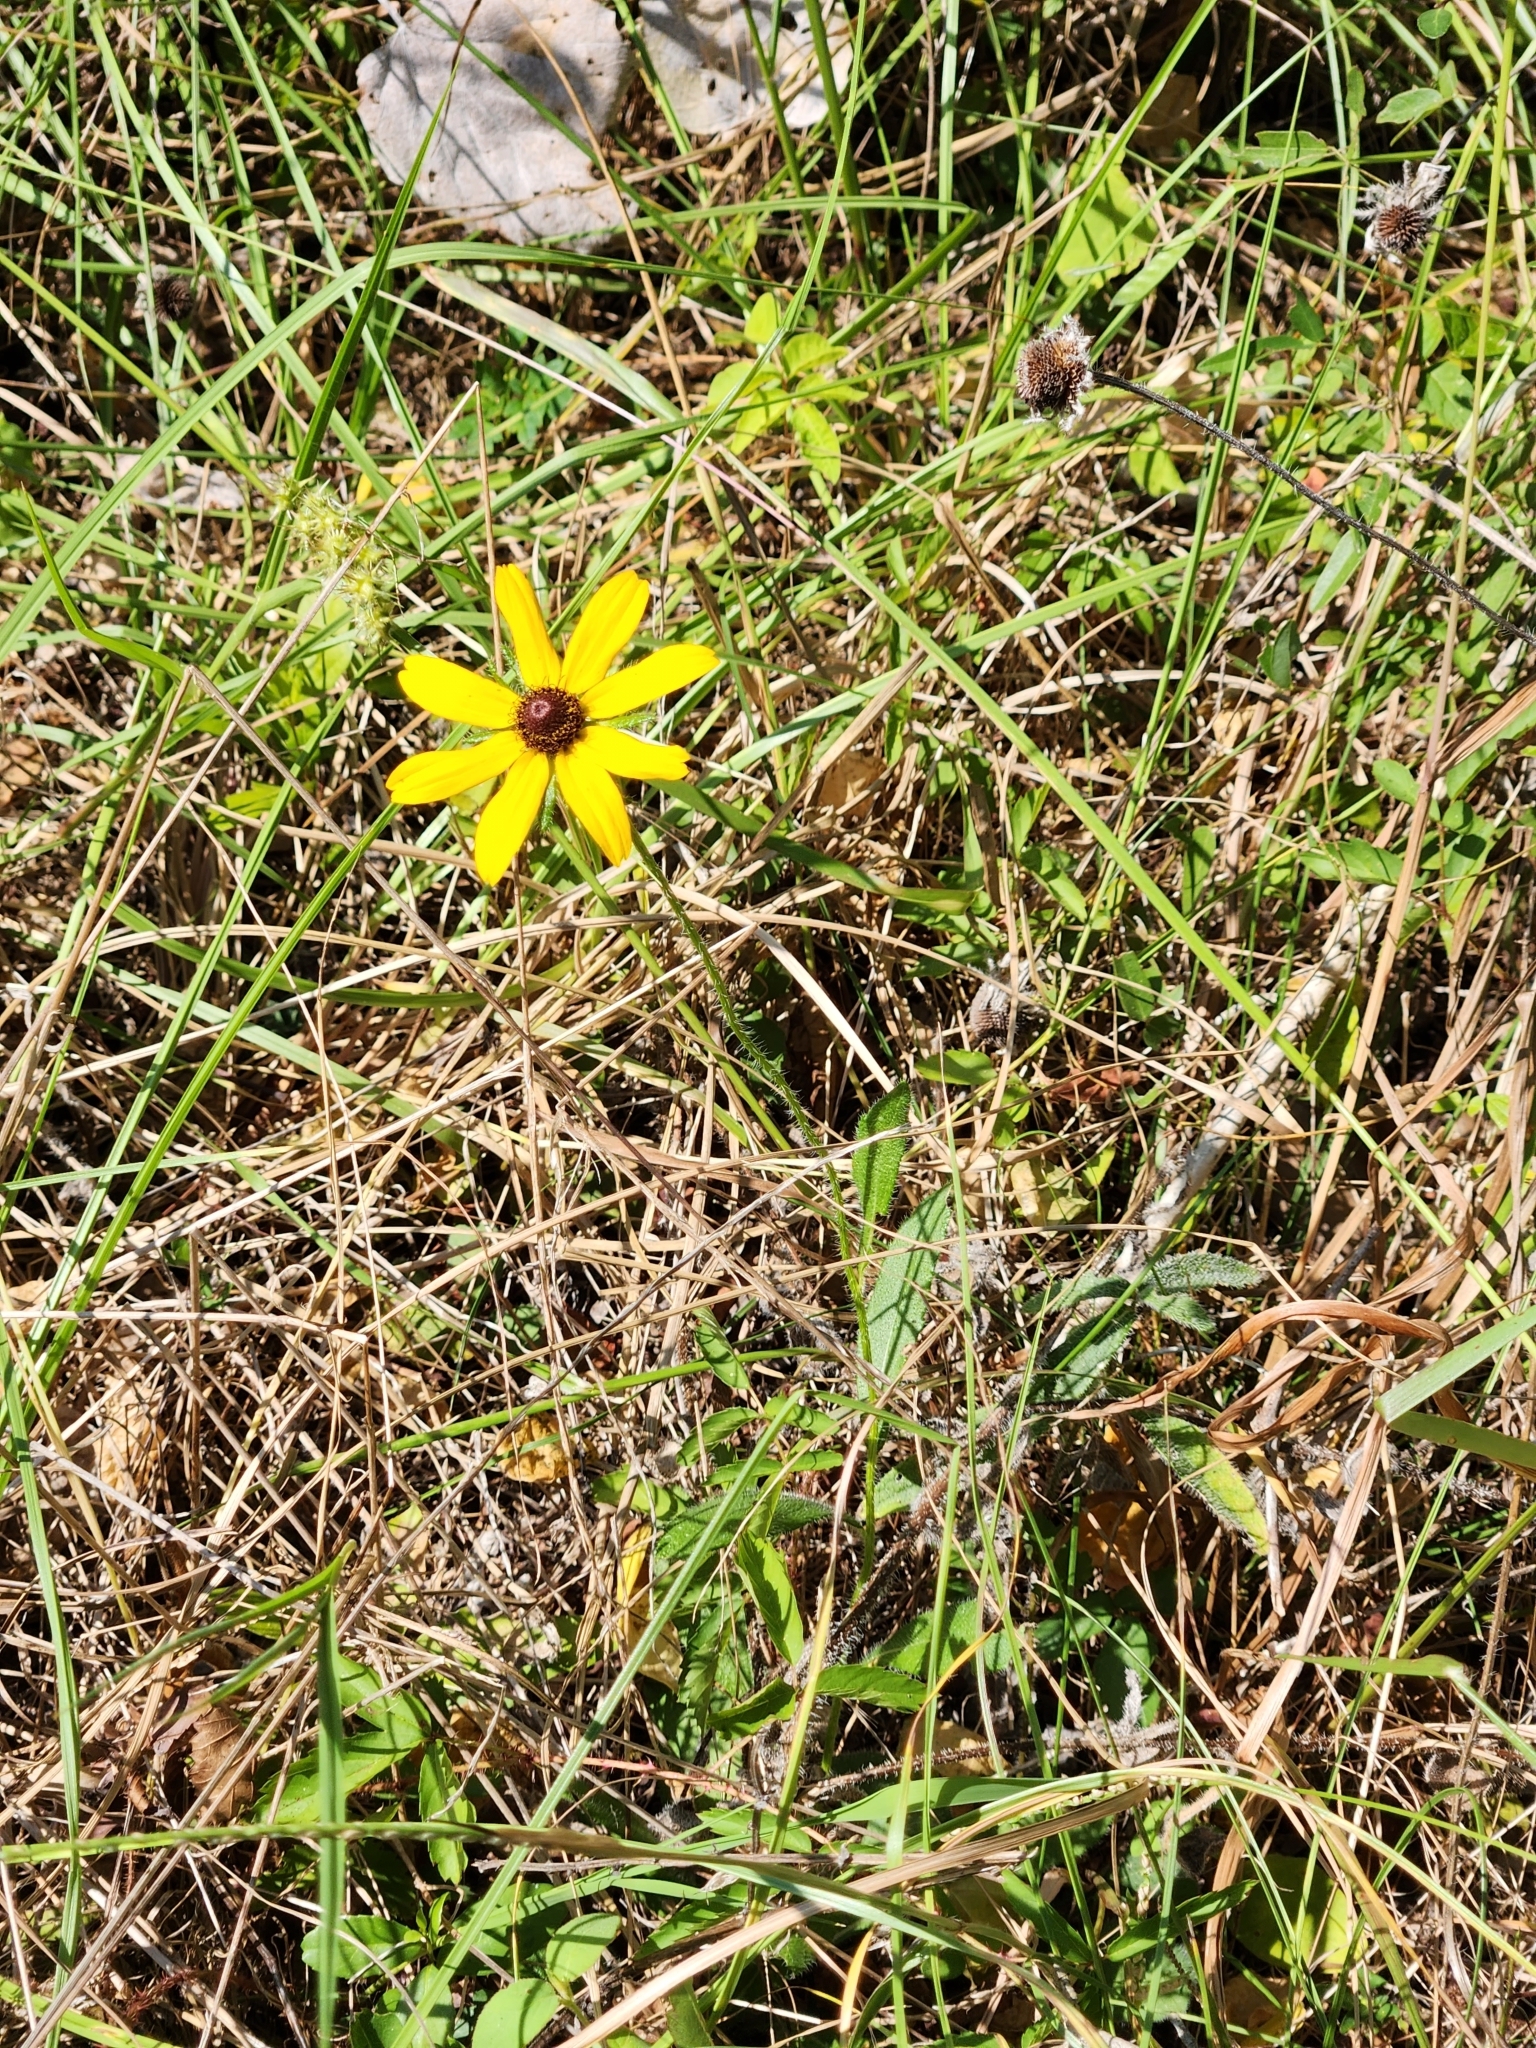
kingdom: Plantae
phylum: Tracheophyta
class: Magnoliopsida
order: Asterales
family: Asteraceae
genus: Rudbeckia
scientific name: Rudbeckia hirta
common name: Black-eyed-susan
